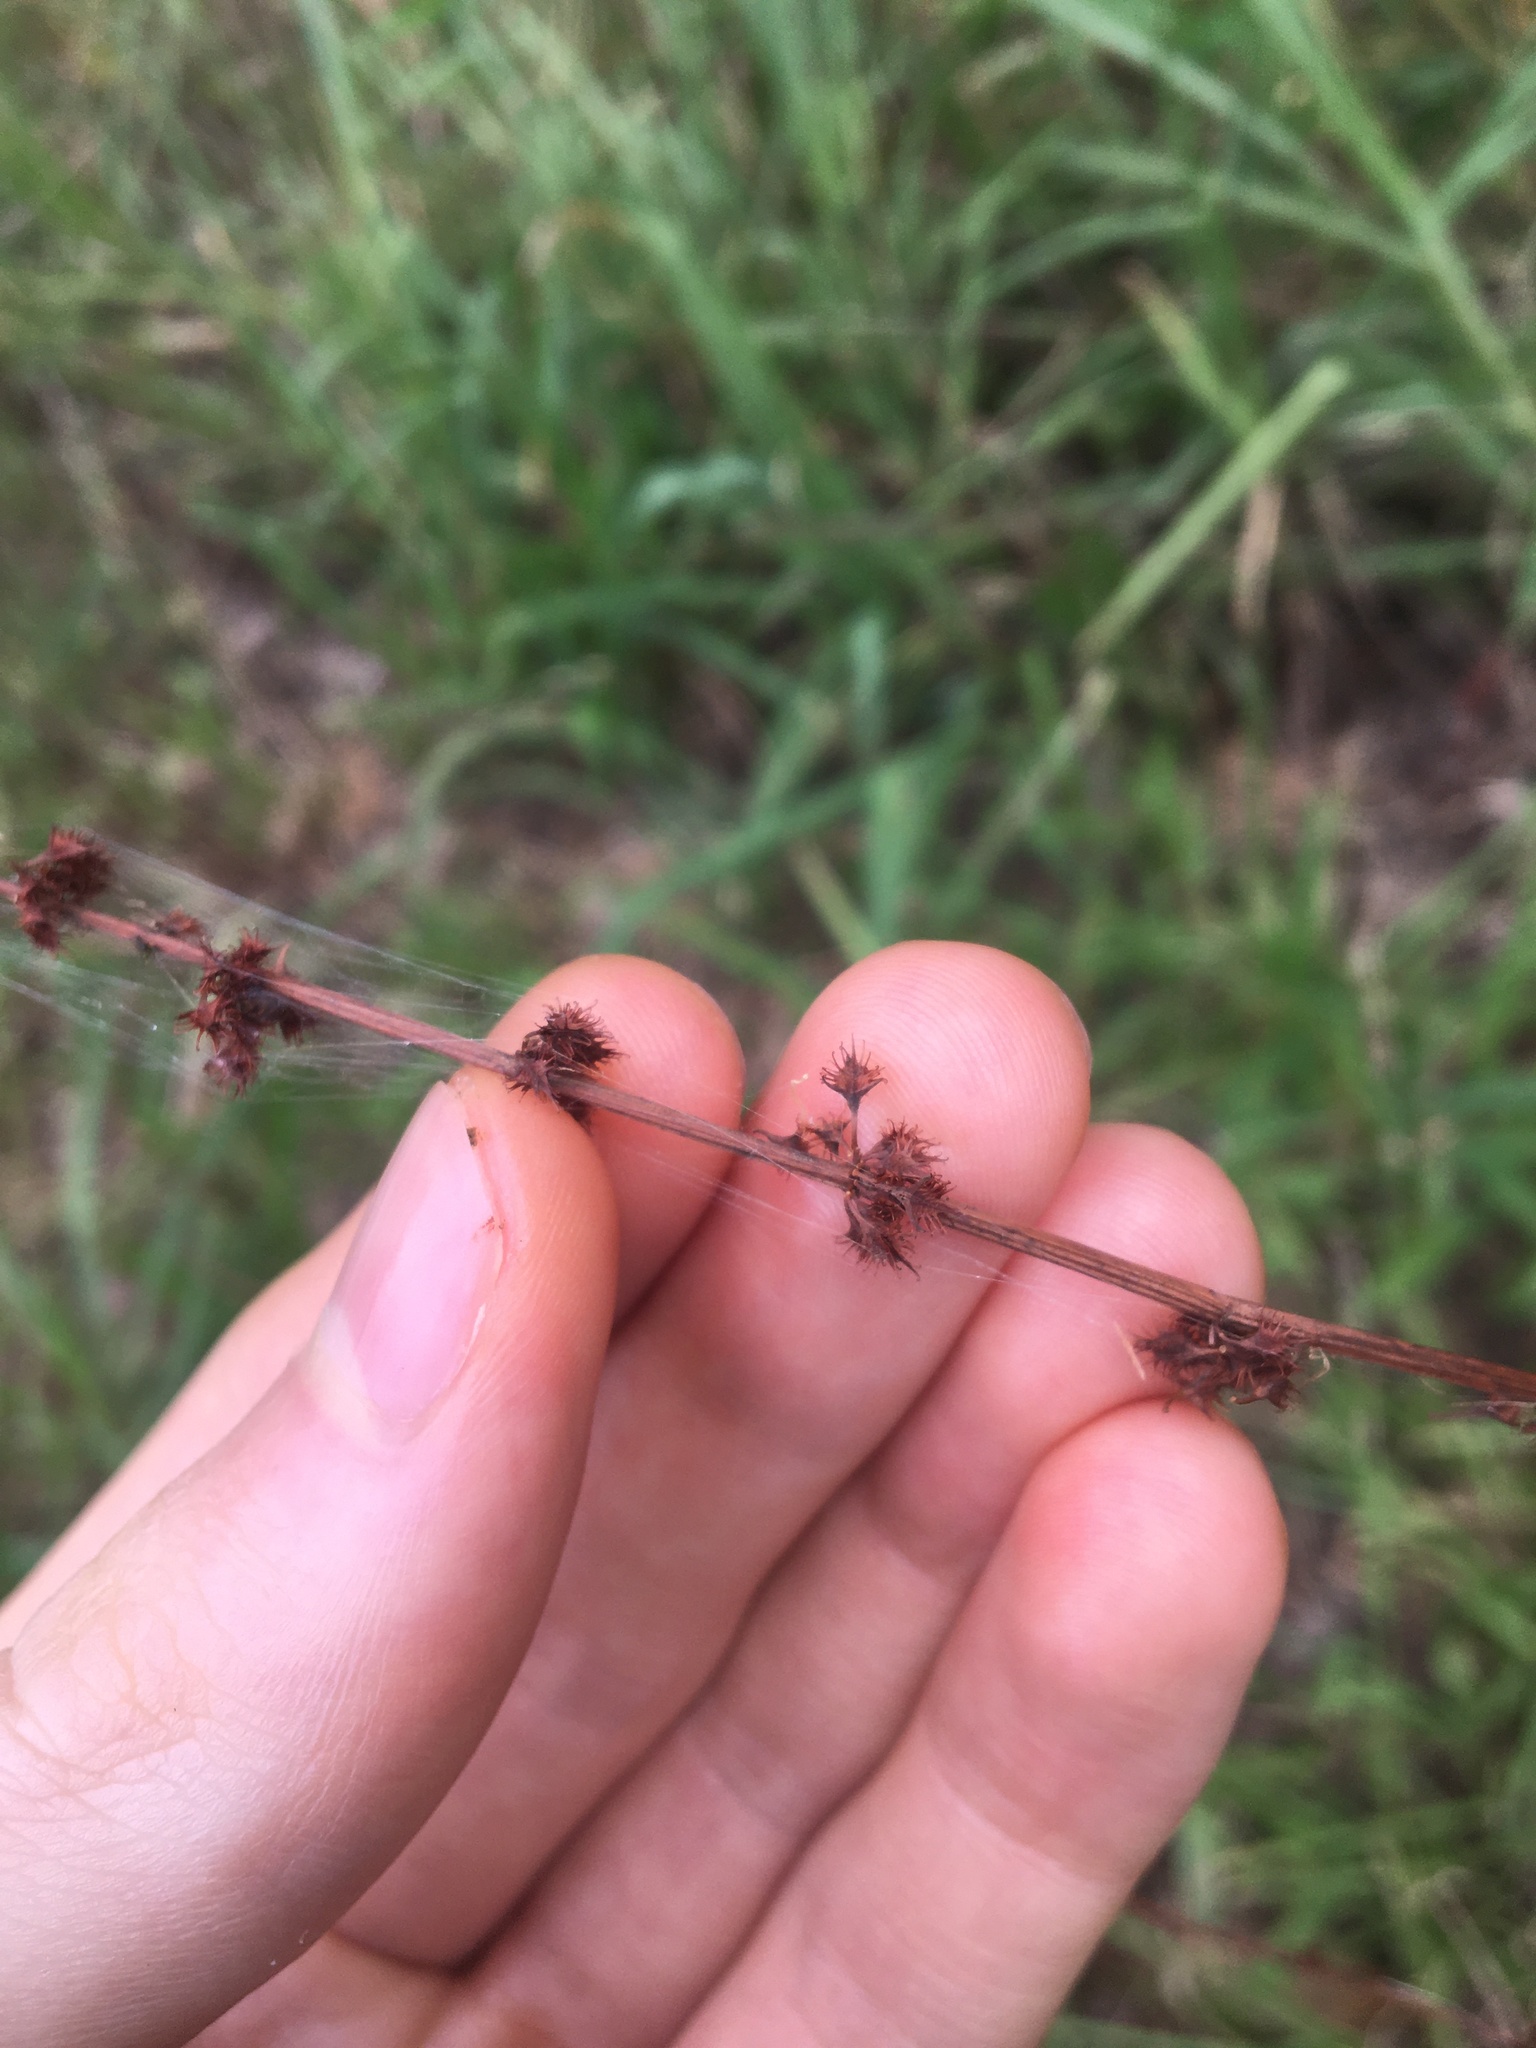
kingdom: Plantae
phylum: Tracheophyta
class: Magnoliopsida
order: Caryophyllales
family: Polygonaceae
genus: Rumex
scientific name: Rumex brownii
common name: Hooked dock
